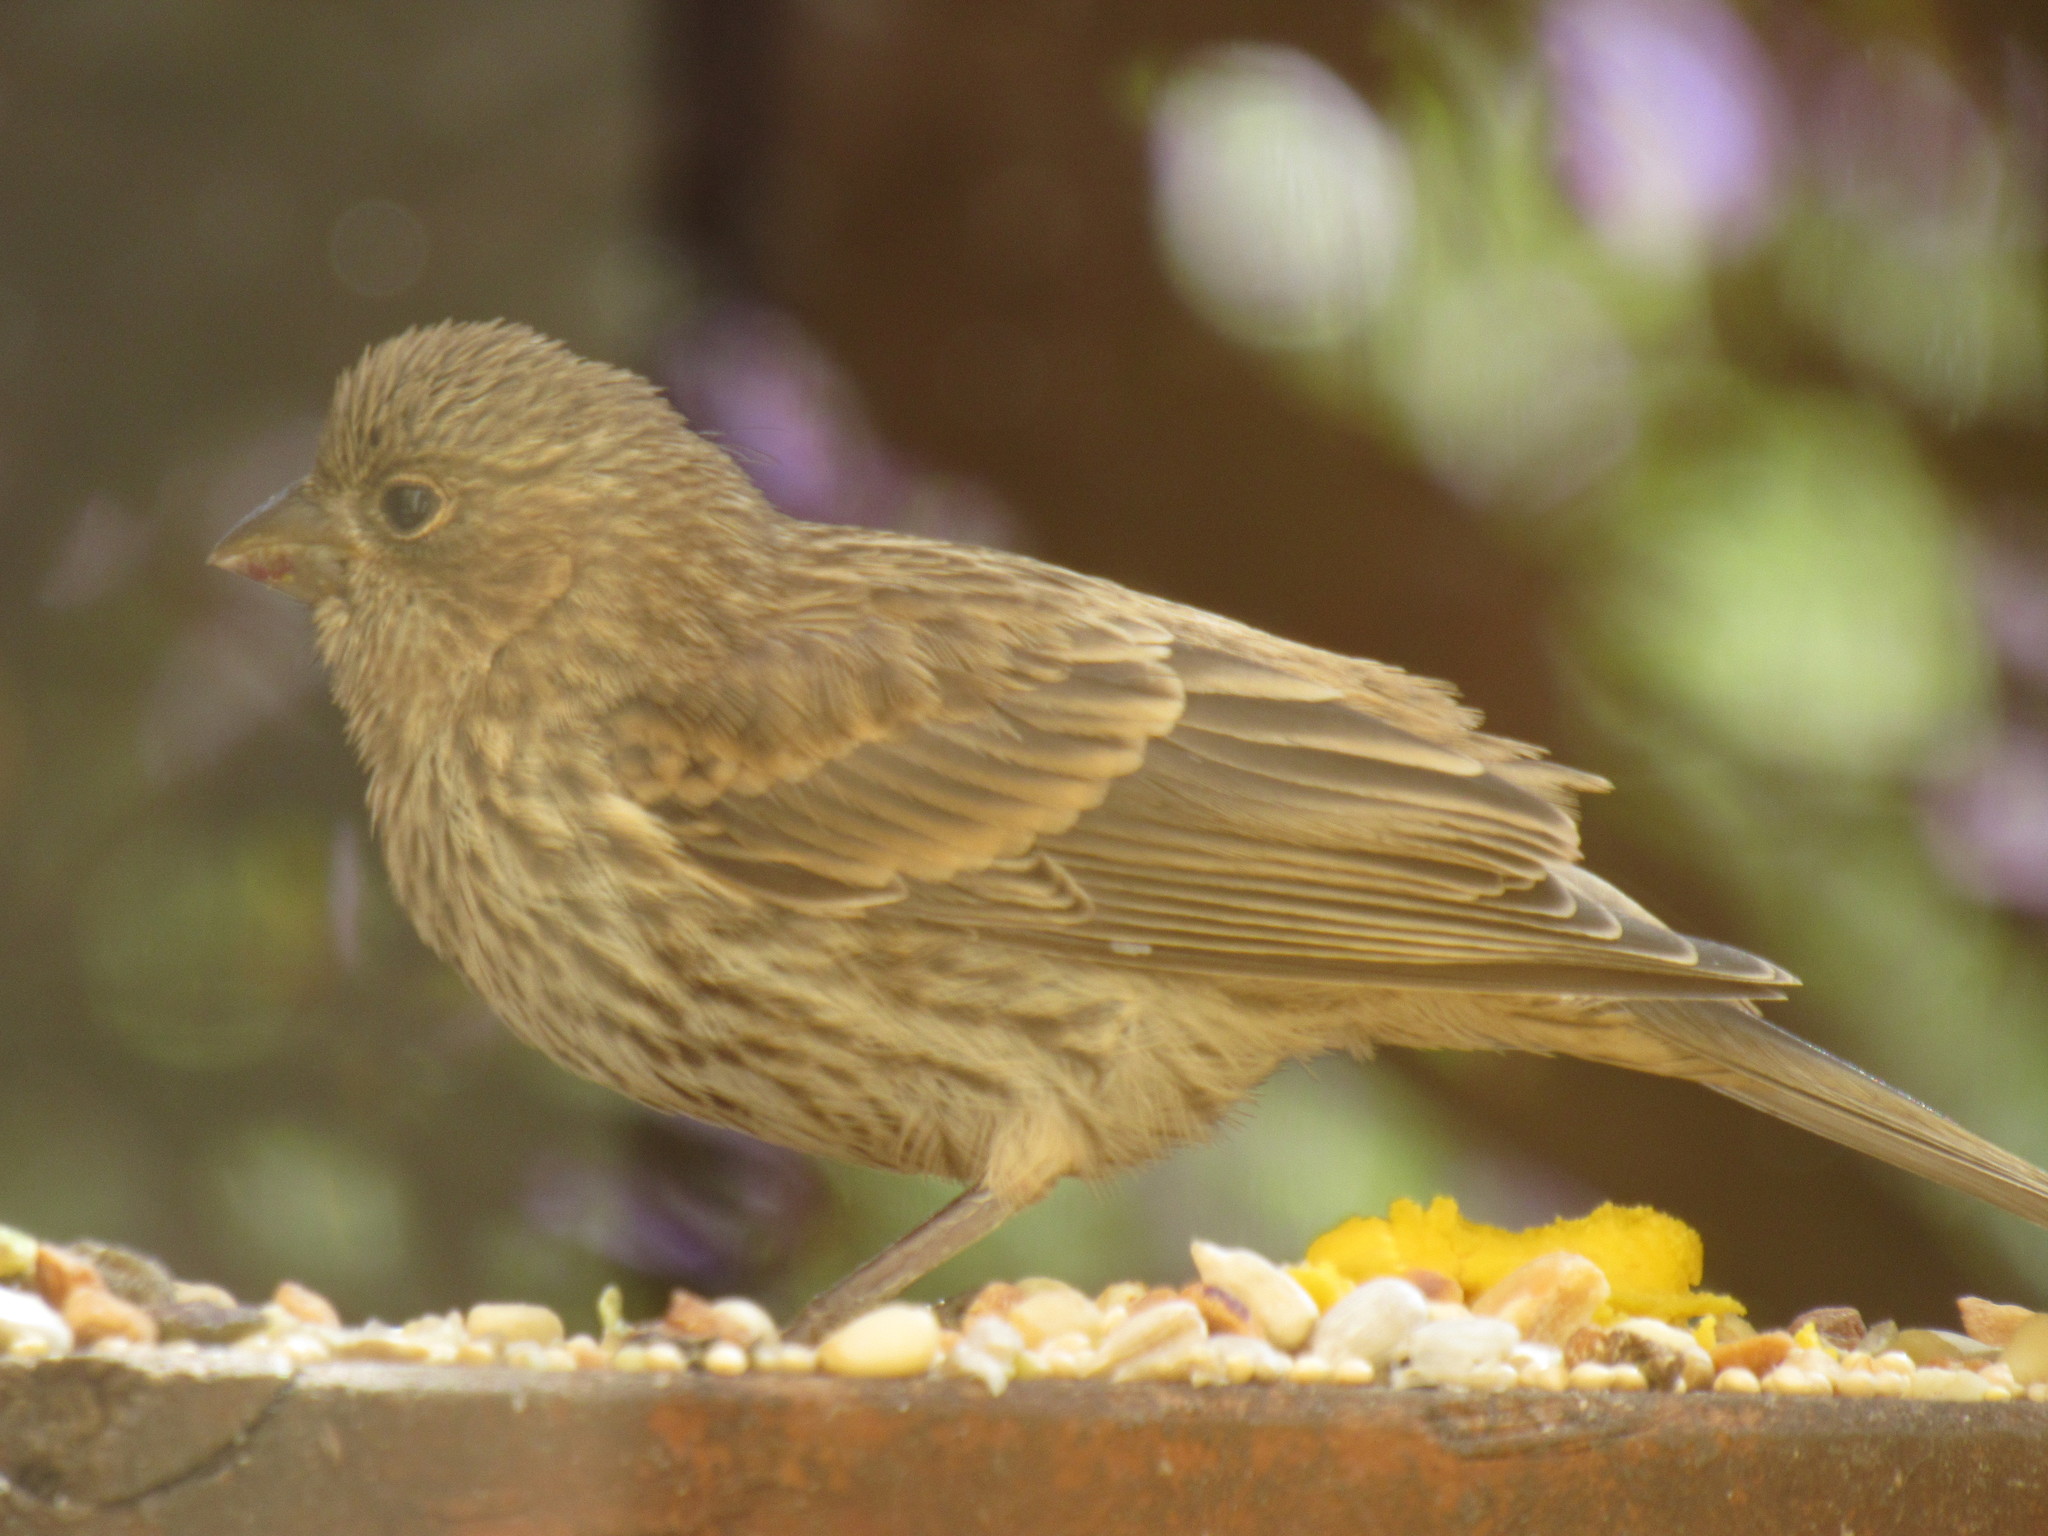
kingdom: Animalia
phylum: Chordata
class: Aves
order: Passeriformes
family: Fringillidae
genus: Haemorhous
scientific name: Haemorhous mexicanus
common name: House finch
